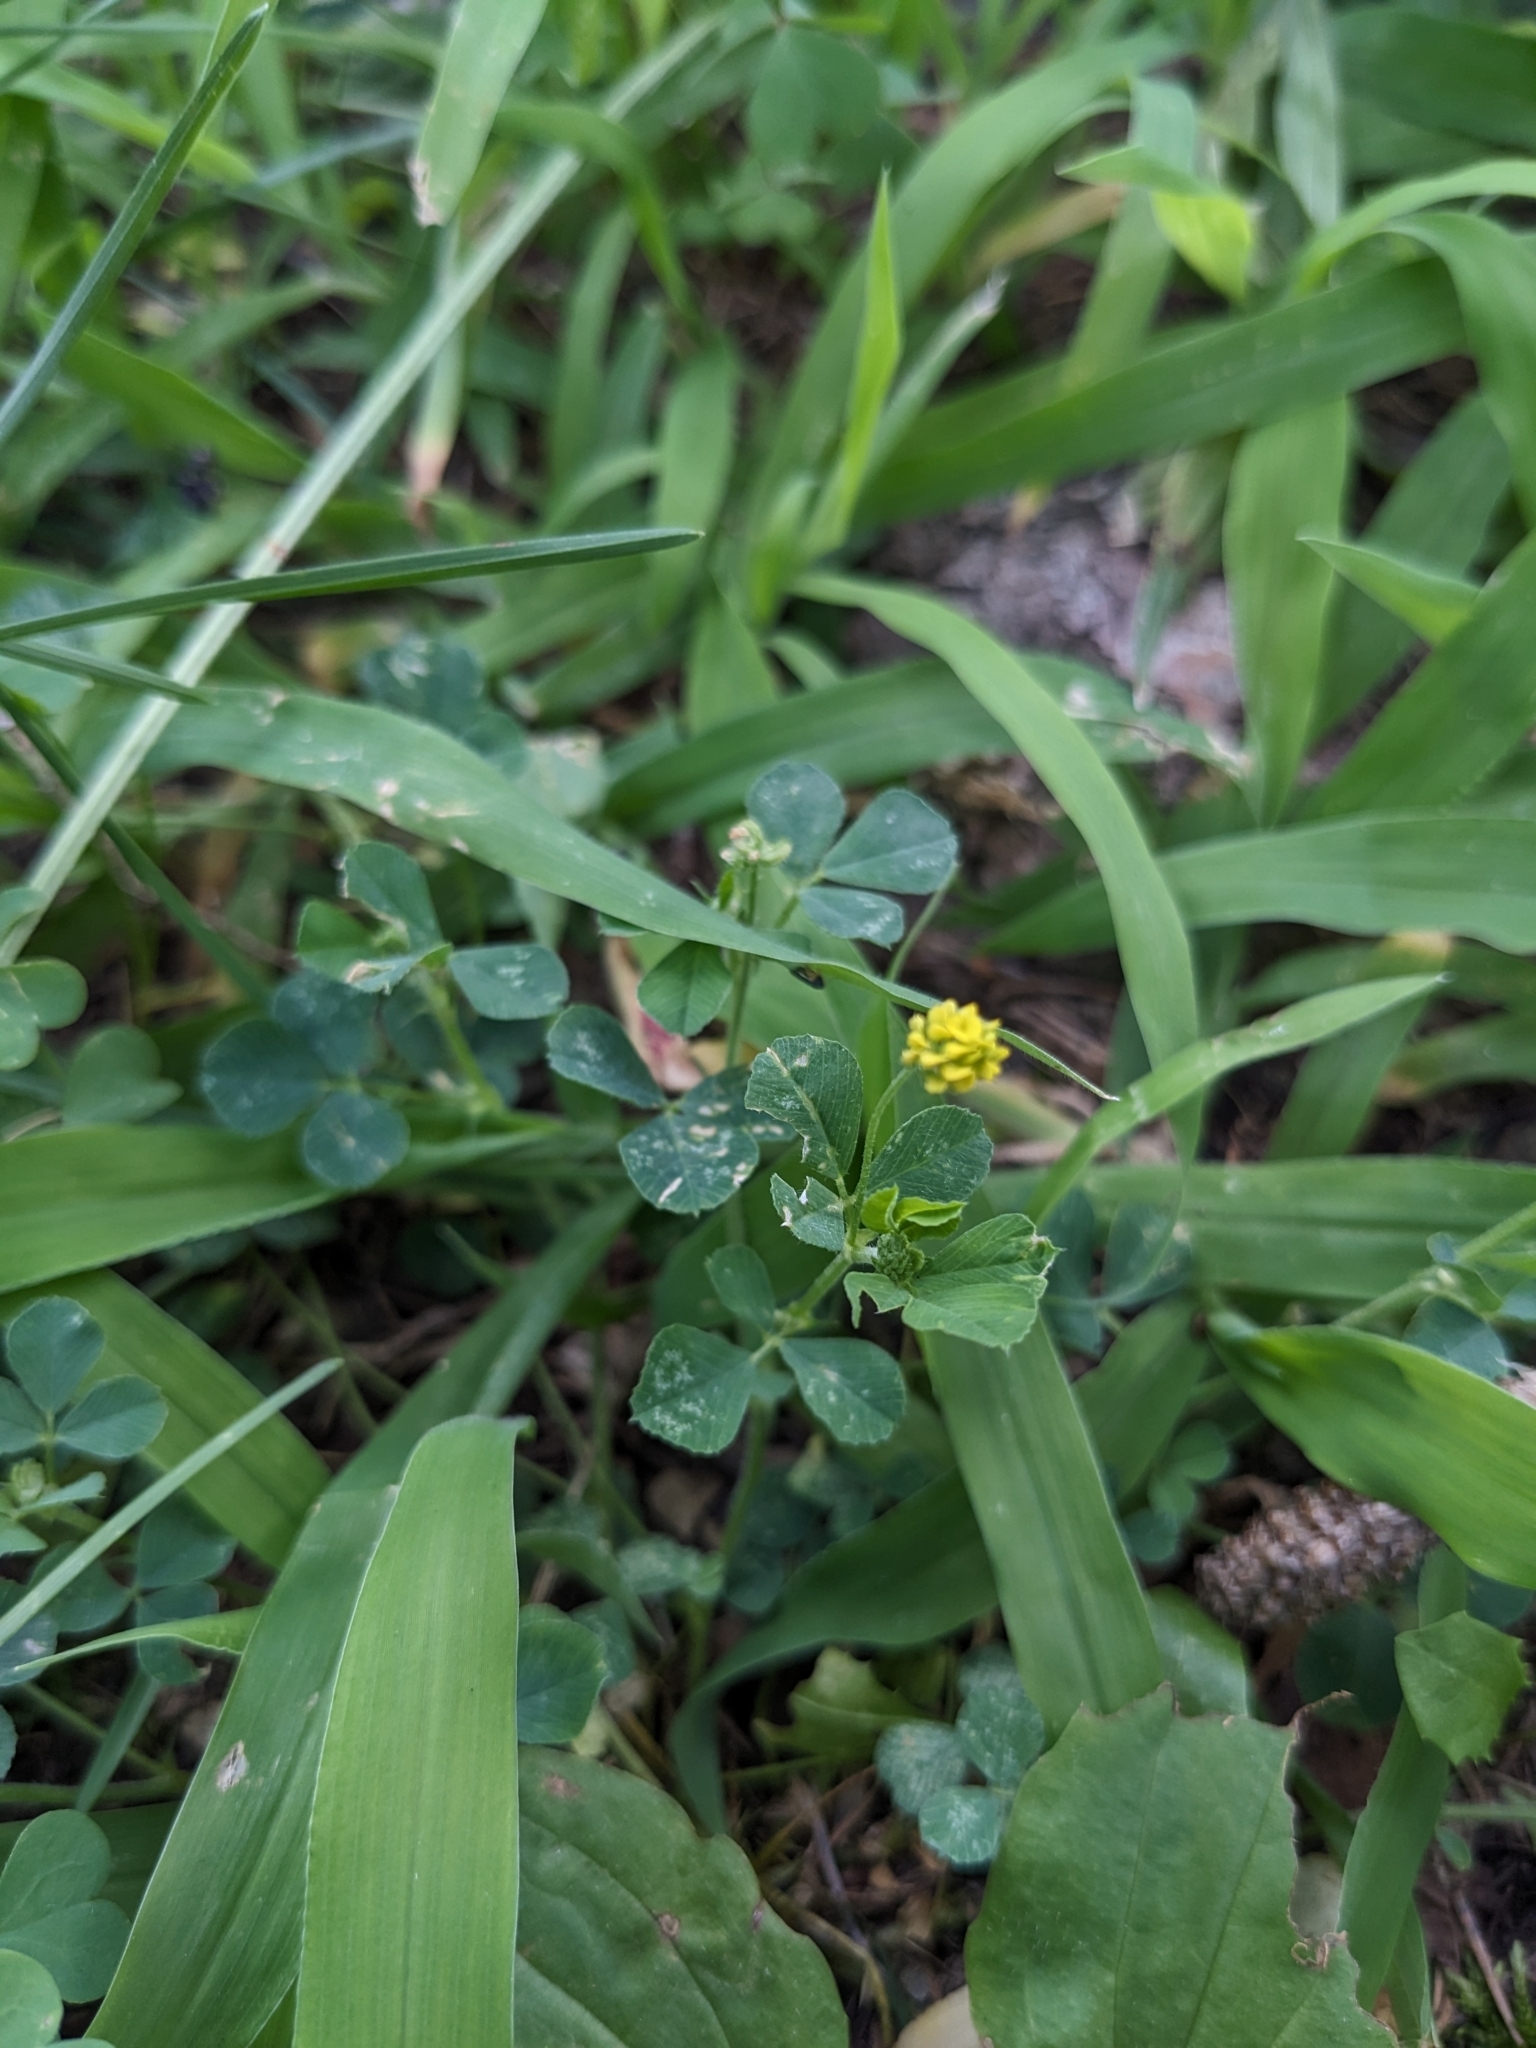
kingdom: Plantae
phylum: Tracheophyta
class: Magnoliopsida
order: Fabales
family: Fabaceae
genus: Medicago
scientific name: Medicago lupulina
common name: Black medick
